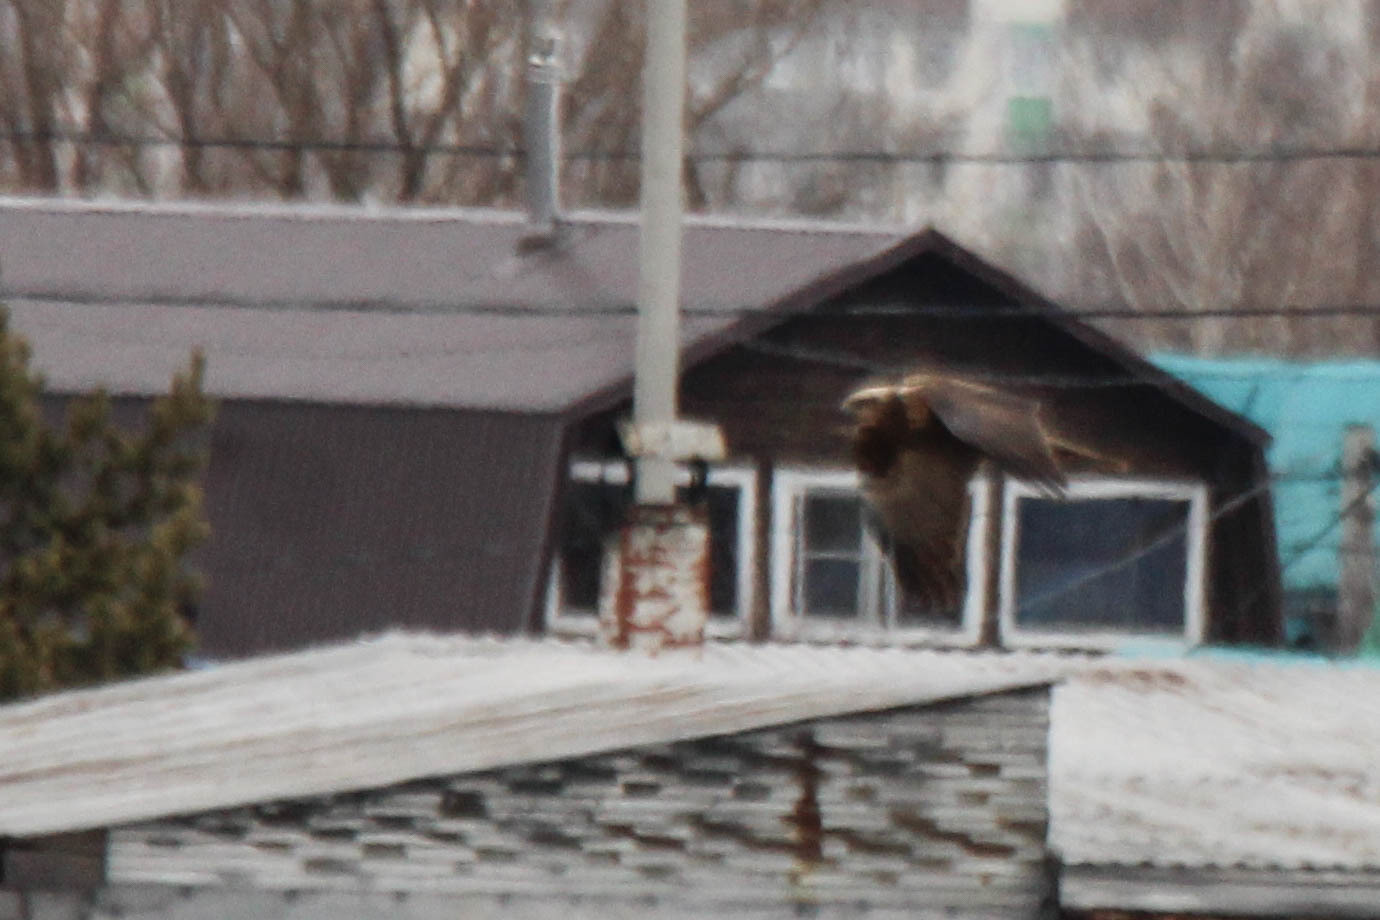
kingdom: Animalia
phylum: Chordata
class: Aves
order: Accipitriformes
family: Accipitridae
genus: Circus
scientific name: Circus aeruginosus
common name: Western marsh harrier
